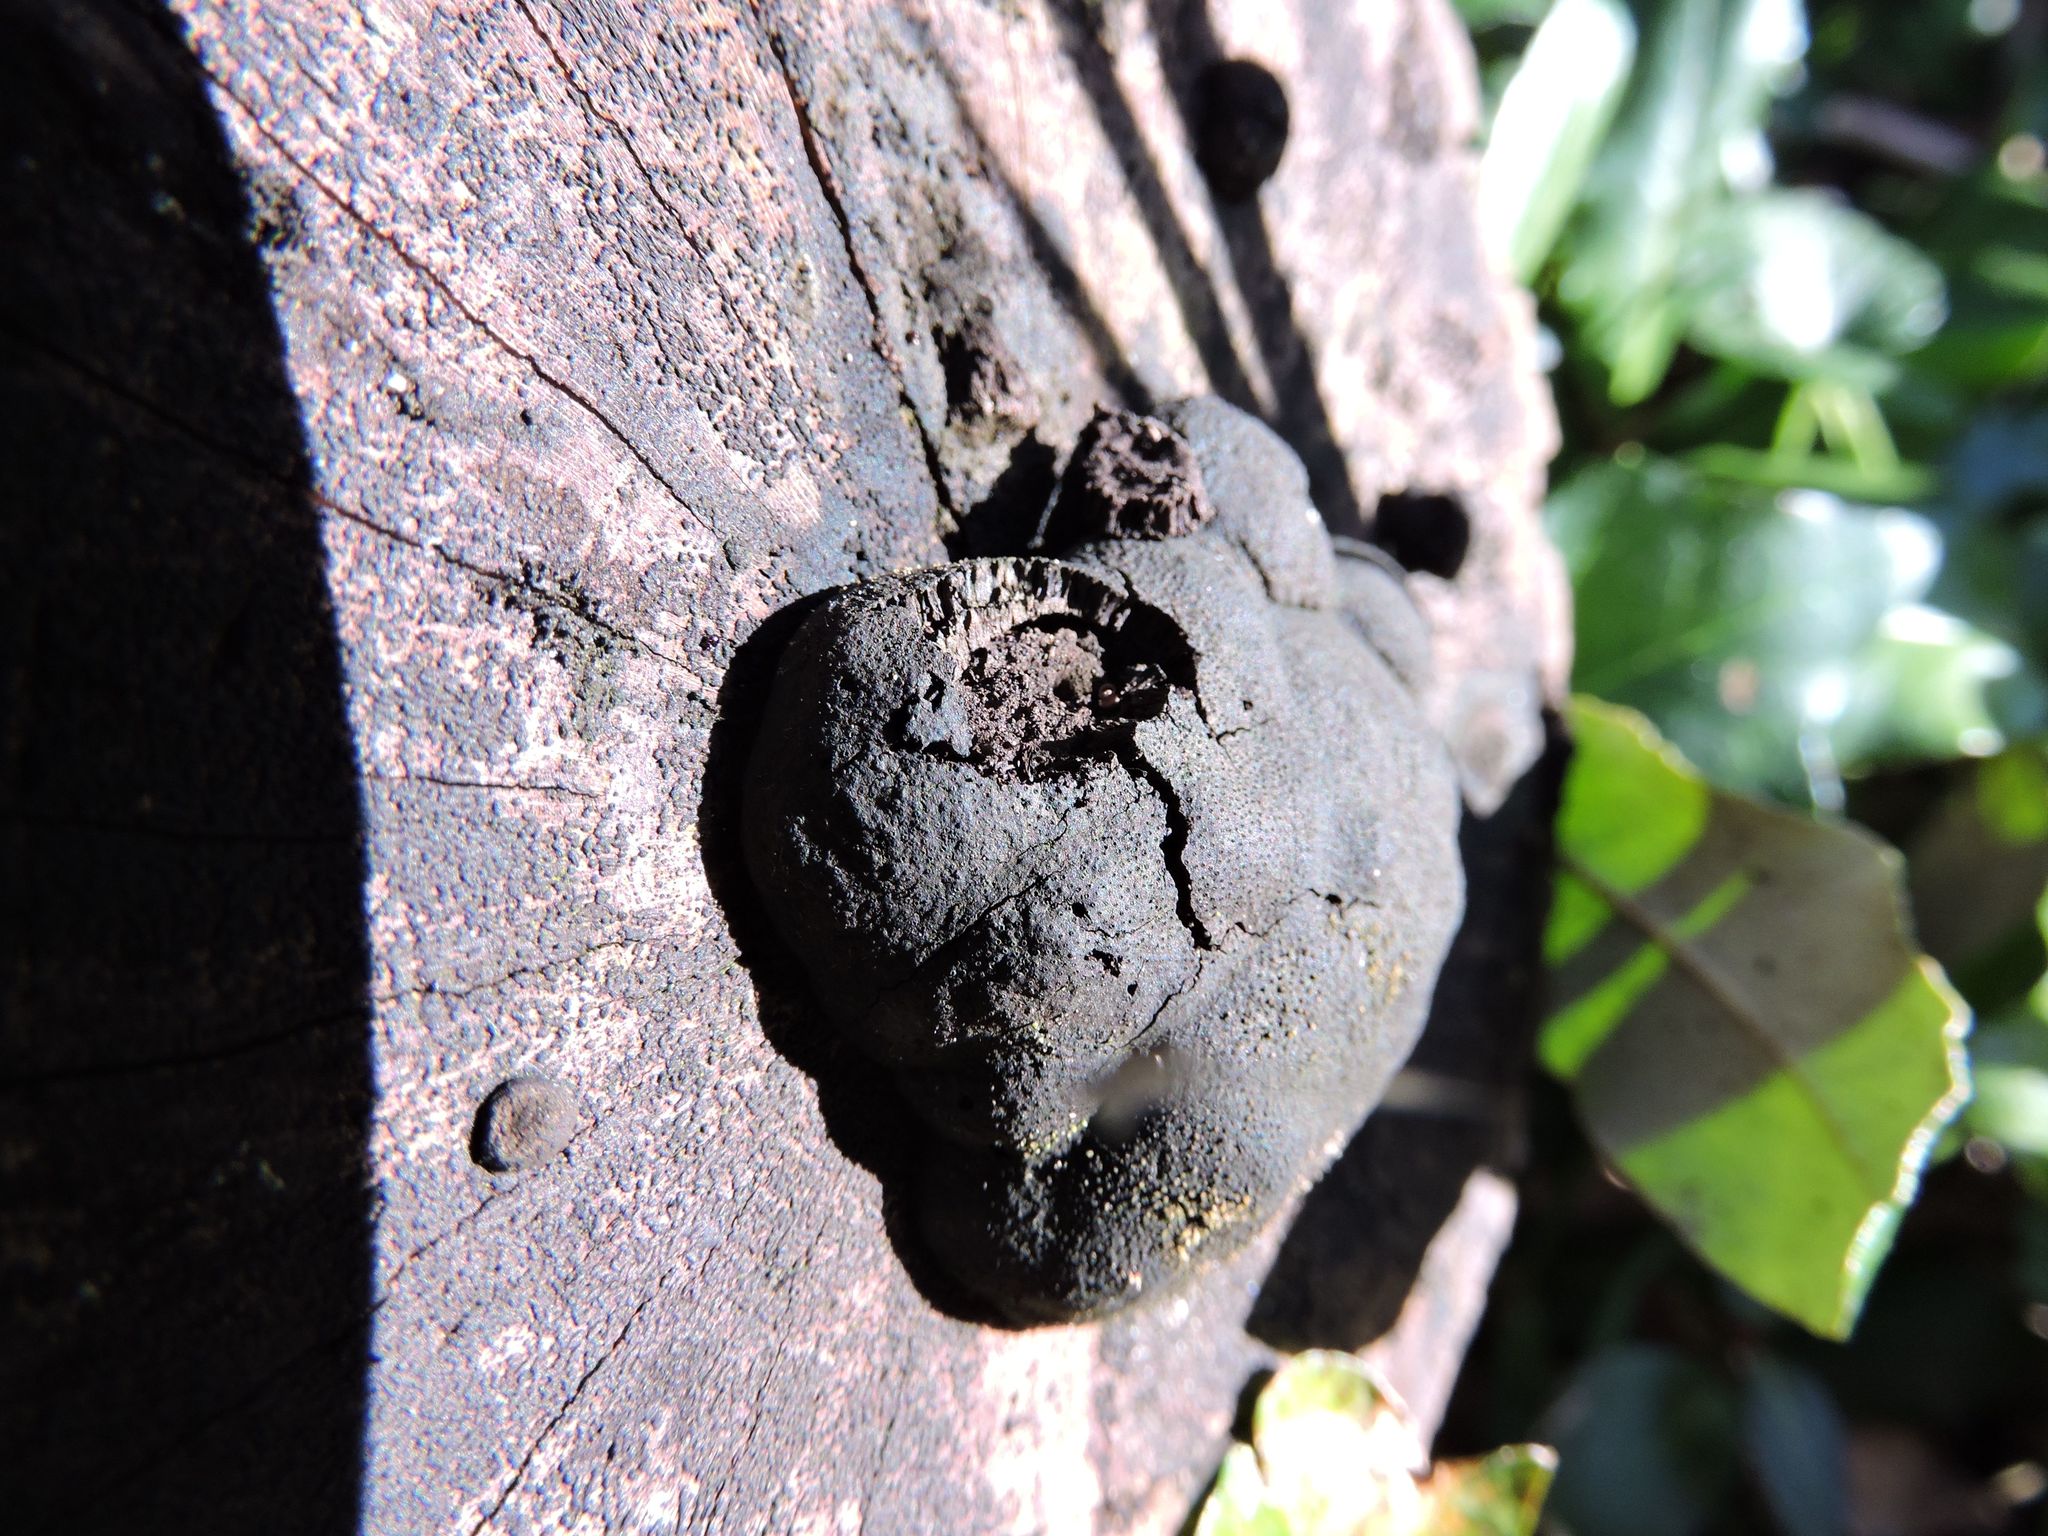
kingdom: Fungi
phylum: Ascomycota
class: Sordariomycetes
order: Xylariales
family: Hypoxylaceae
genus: Annulohypoxylon
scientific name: Annulohypoxylon thouarsianum
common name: Cramp balls
